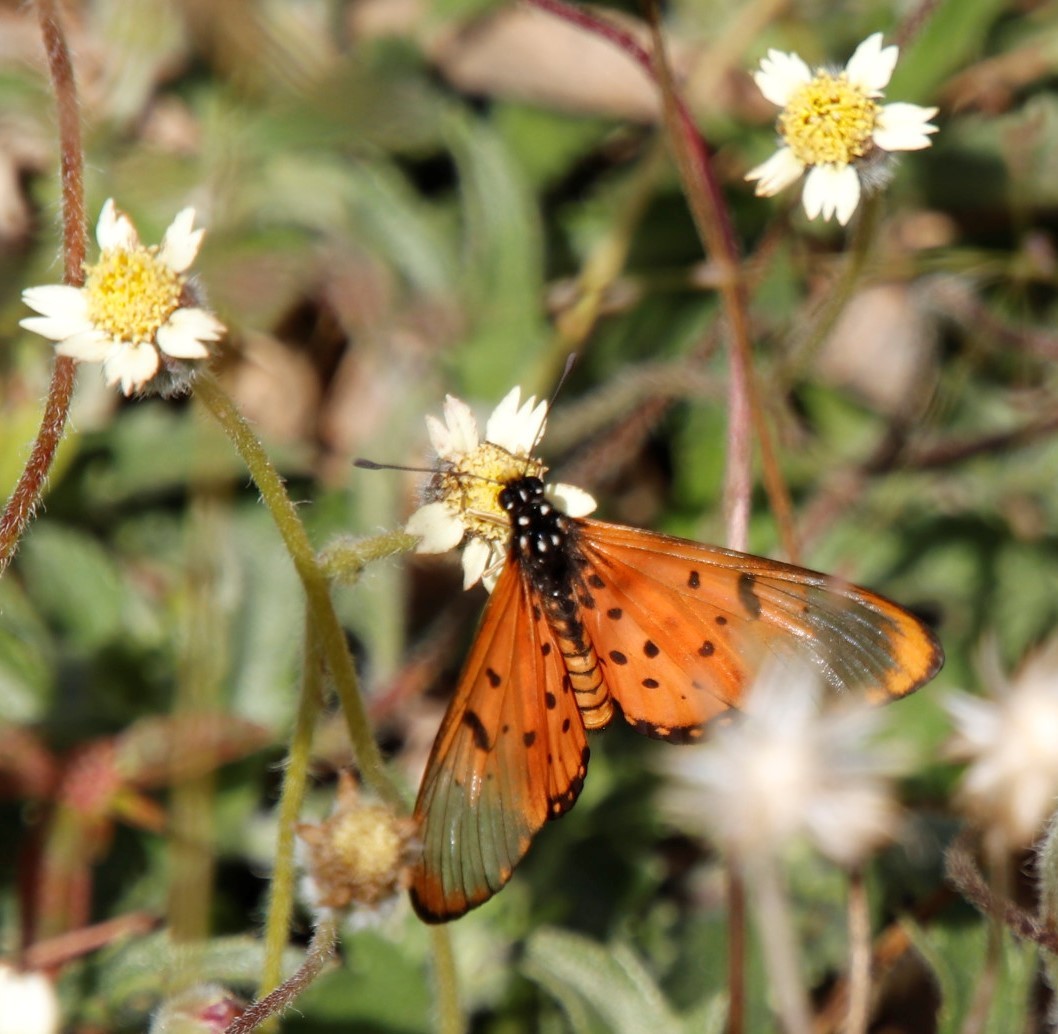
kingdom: Animalia
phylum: Arthropoda
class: Insecta
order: Lepidoptera
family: Nymphalidae
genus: Acraea
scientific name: Acraea neobule
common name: Dancing acraea
